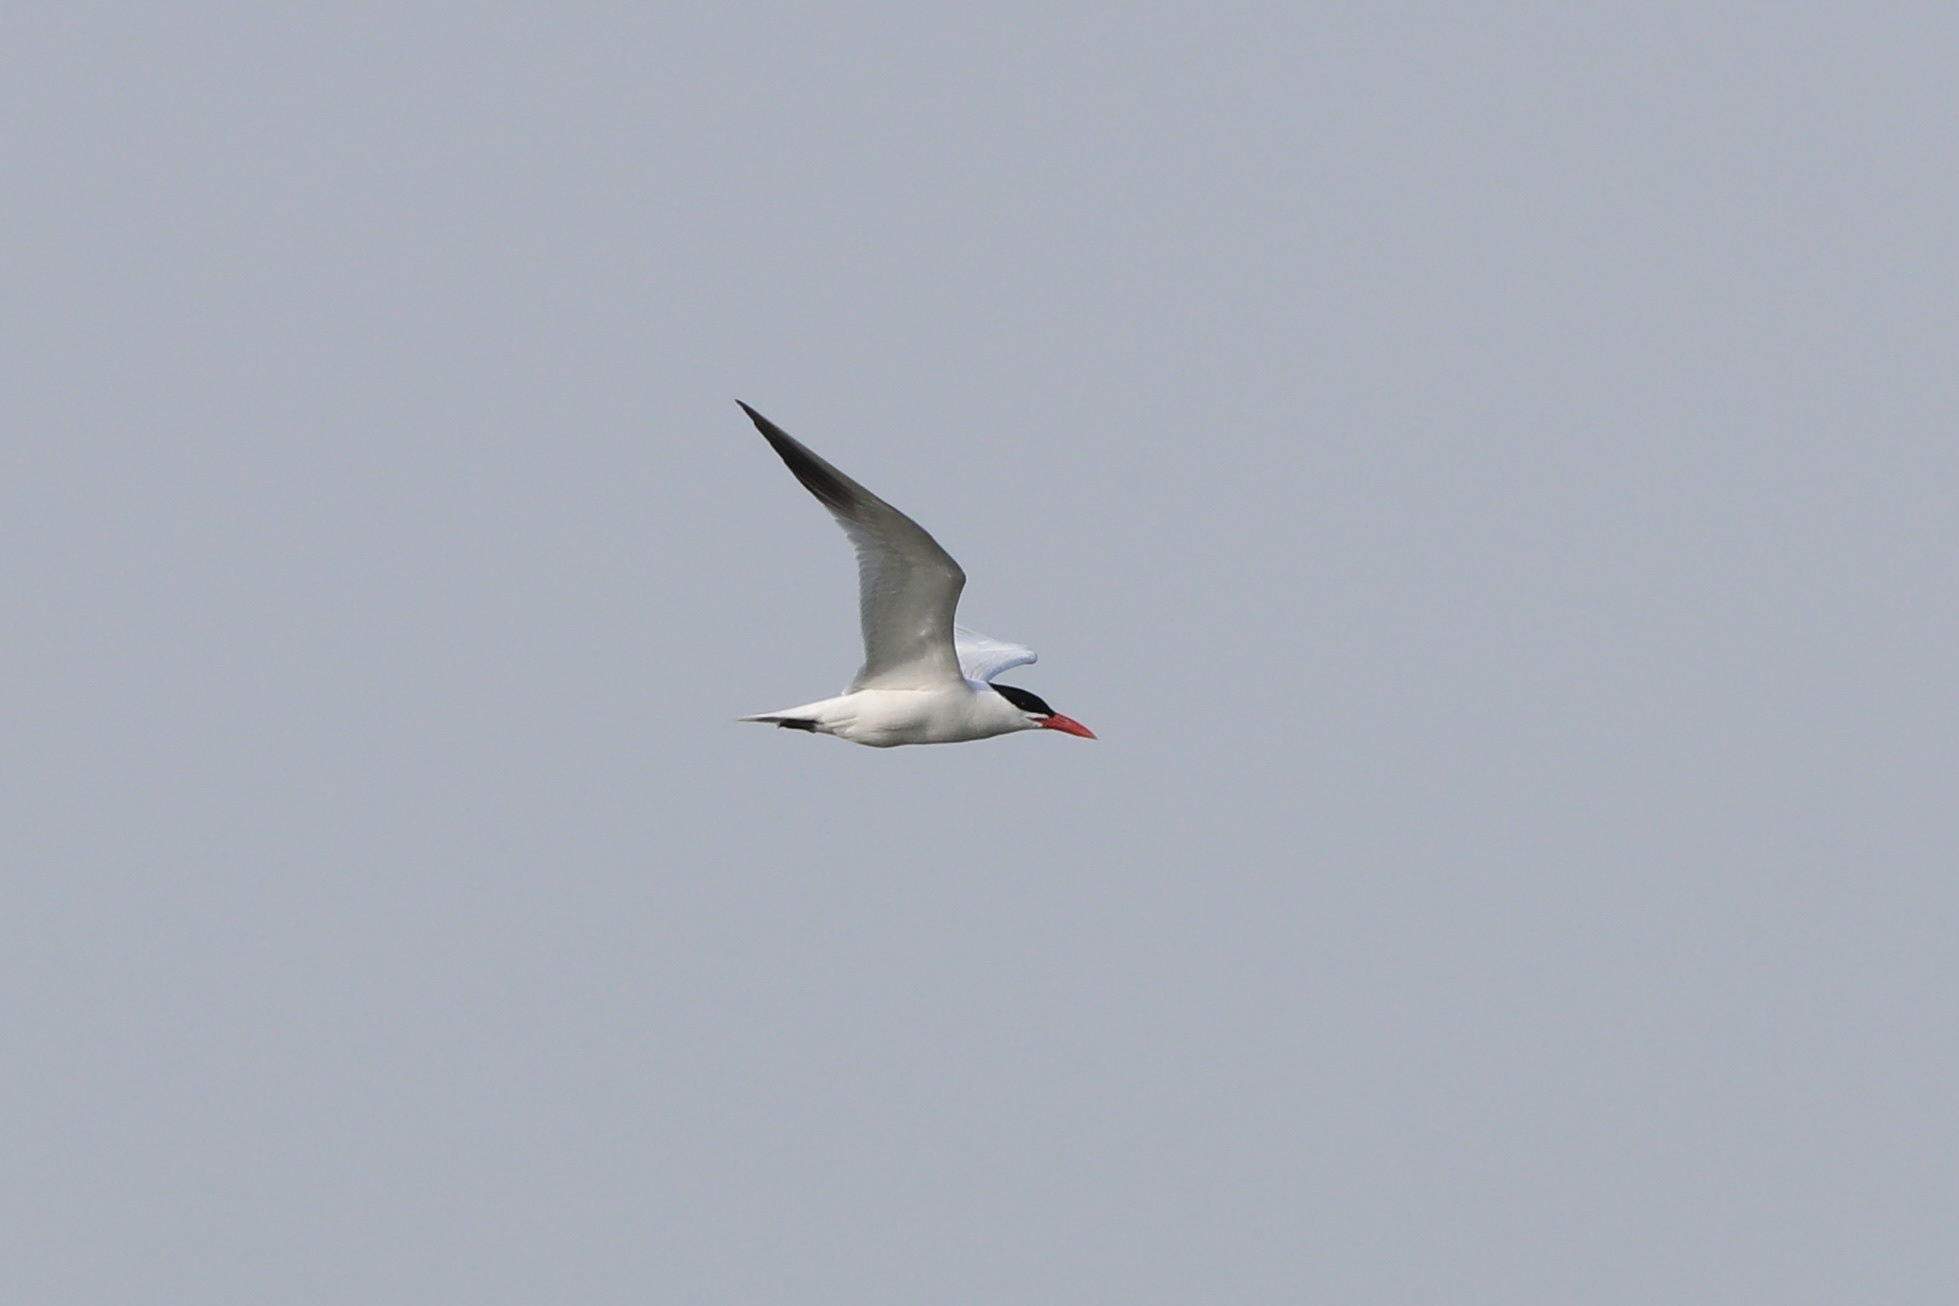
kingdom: Animalia
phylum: Chordata
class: Aves
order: Charadriiformes
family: Laridae
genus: Hydroprogne
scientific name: Hydroprogne caspia
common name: Caspian tern
